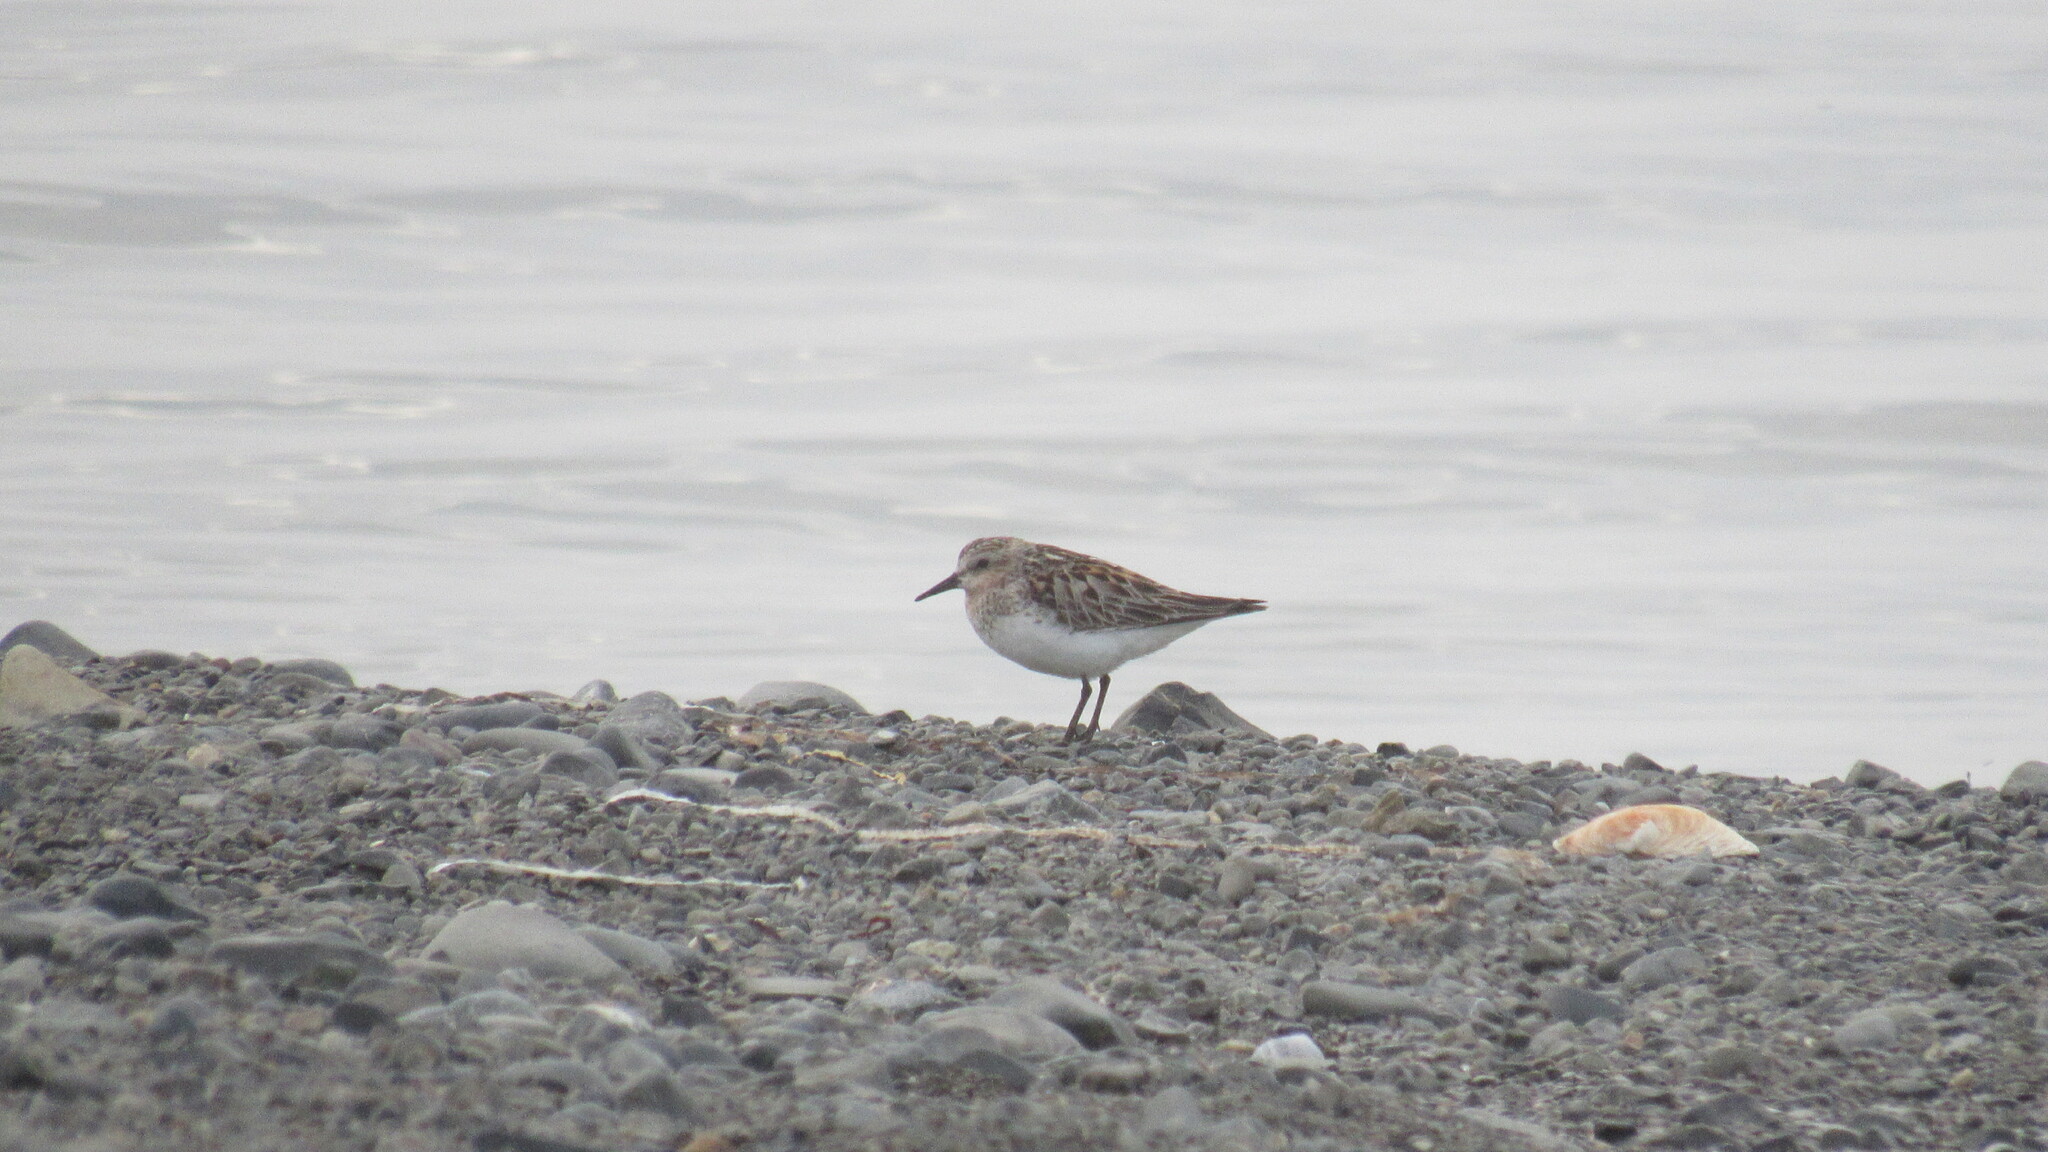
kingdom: Animalia
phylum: Chordata
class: Aves
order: Charadriiformes
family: Scolopacidae
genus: Calidris
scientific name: Calidris ruficollis
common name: Red-necked stint
